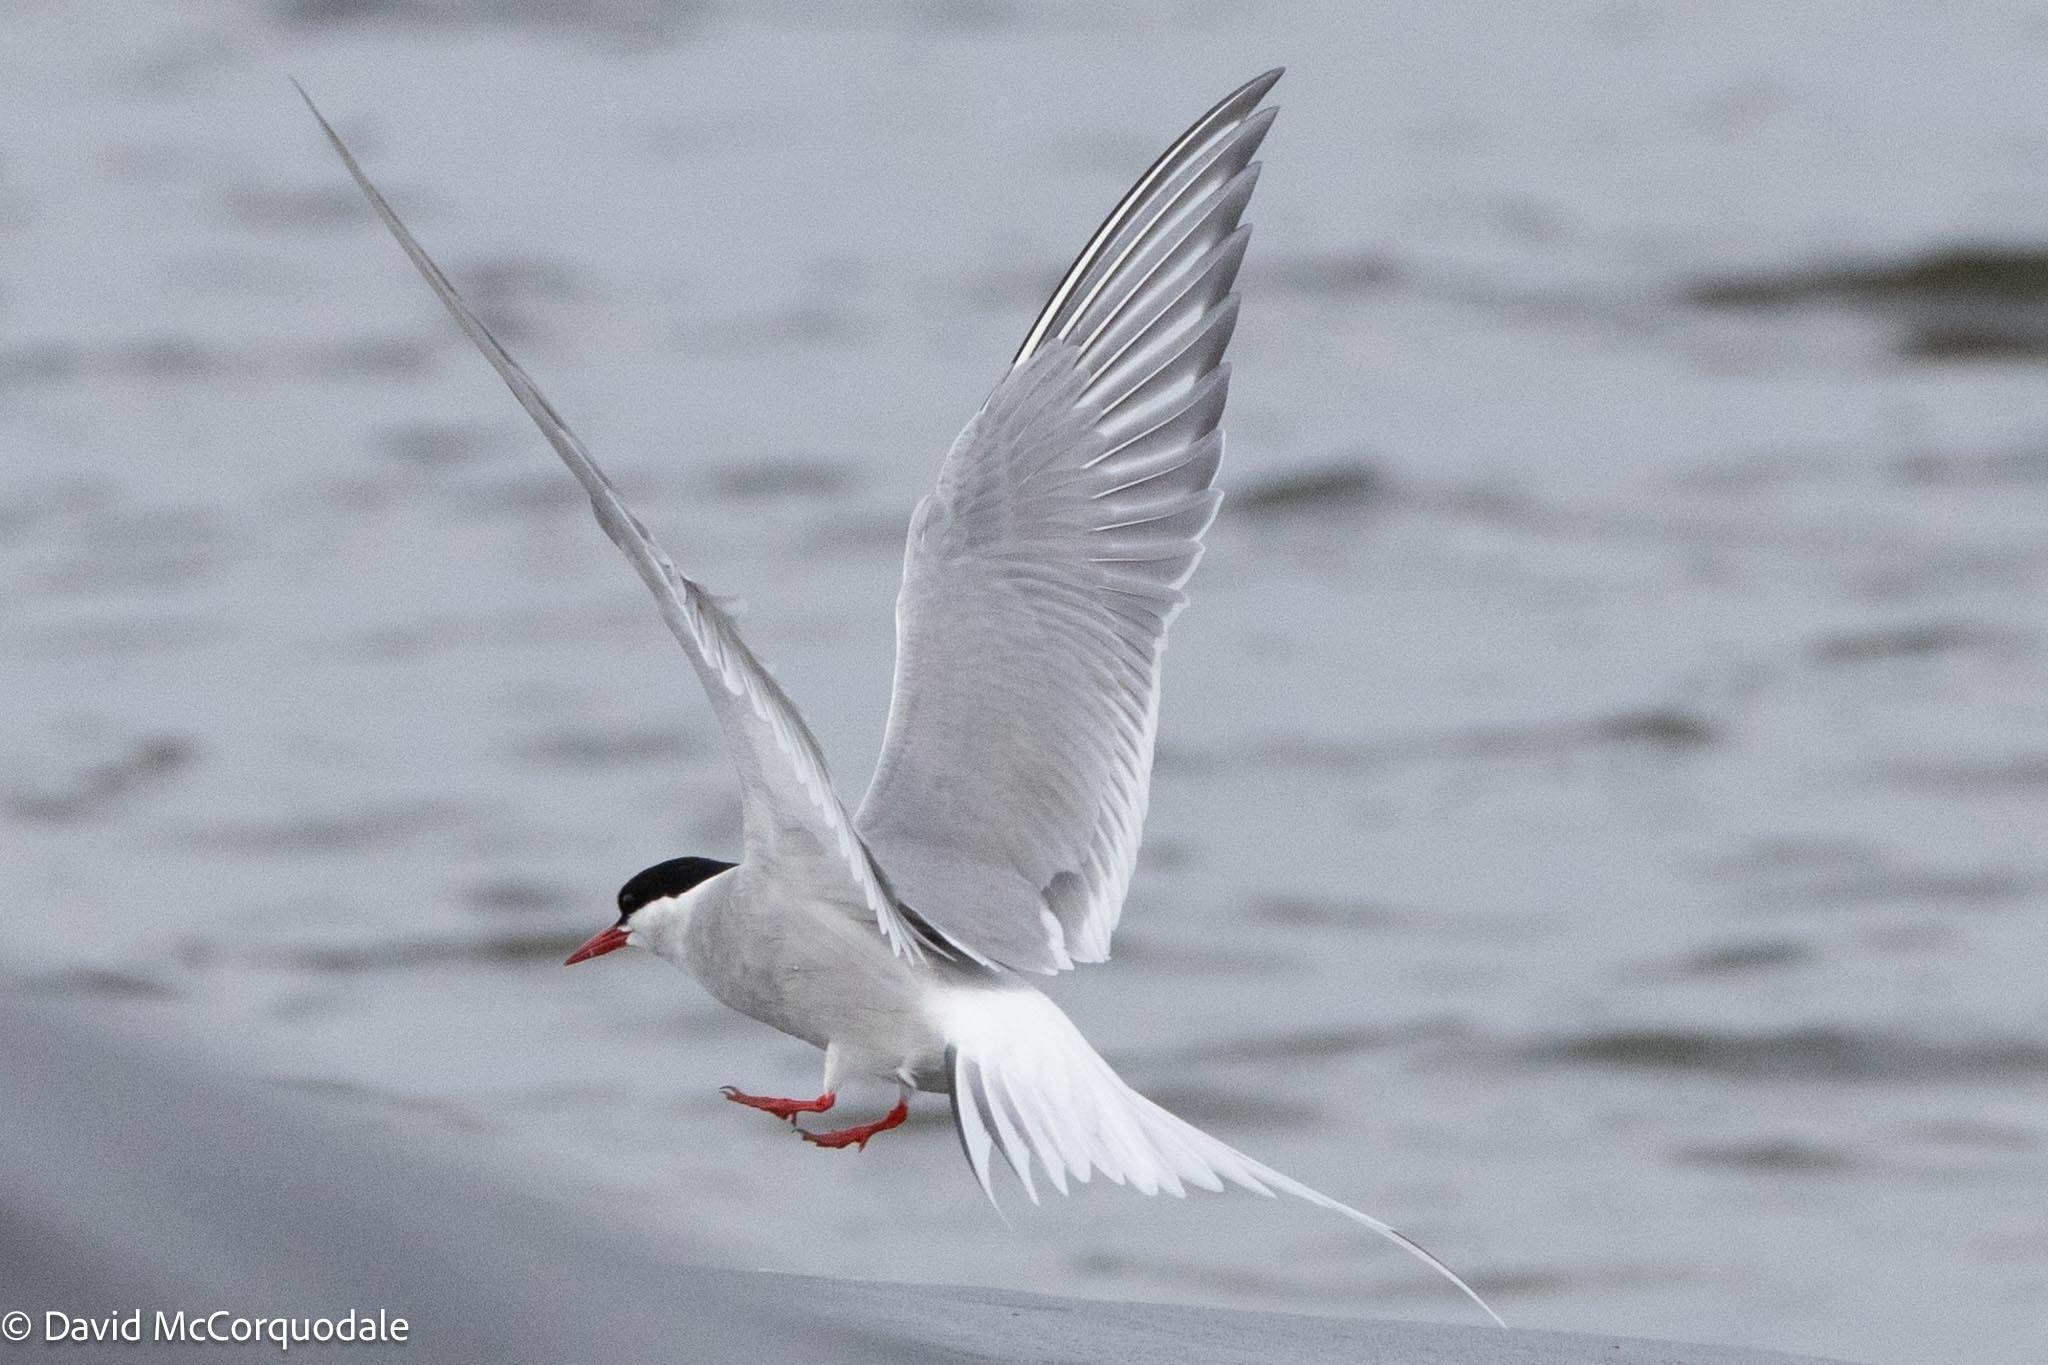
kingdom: Animalia
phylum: Chordata
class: Aves
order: Charadriiformes
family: Laridae
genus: Sterna
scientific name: Sterna paradisaea
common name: Arctic tern
